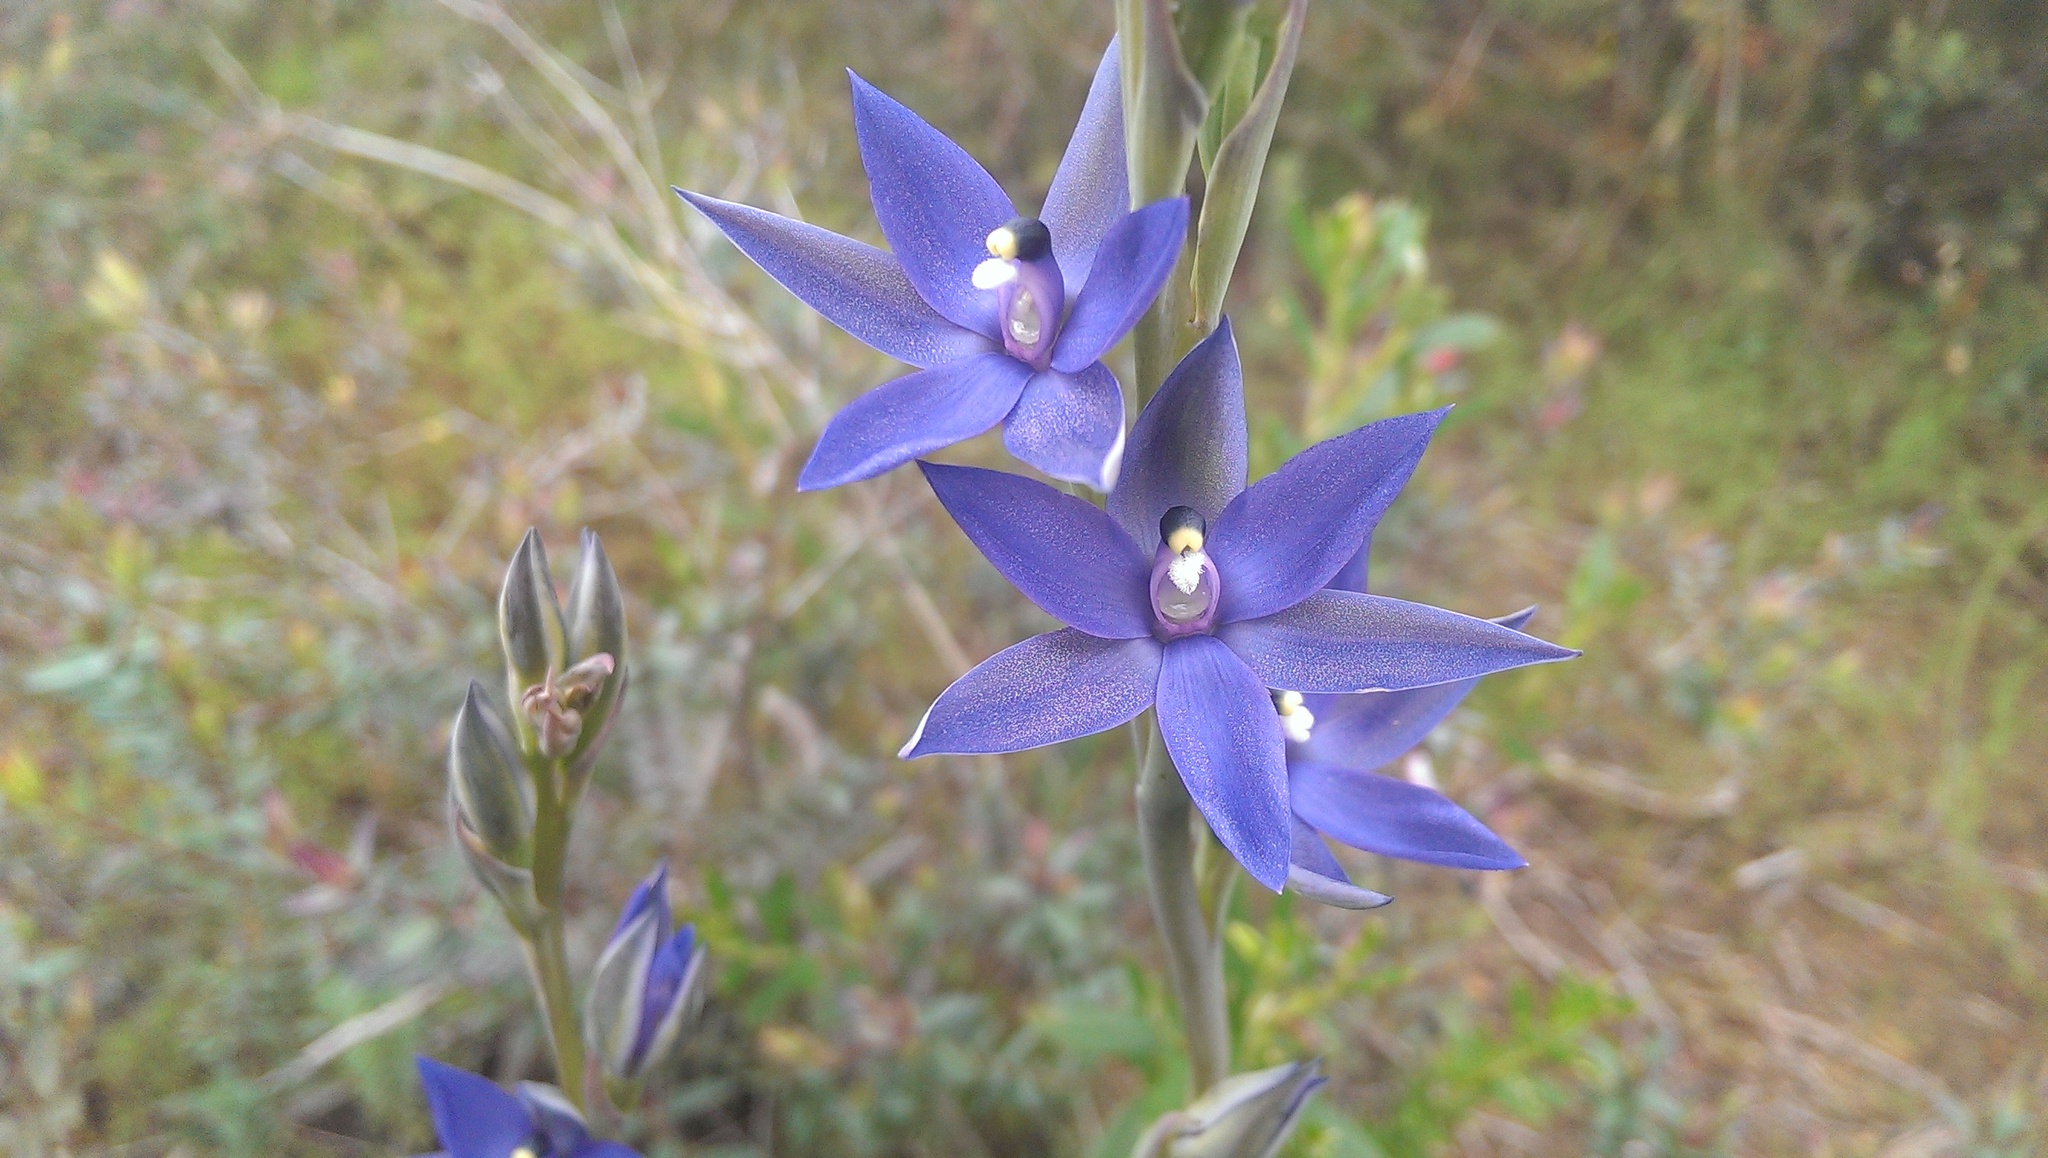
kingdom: Plantae
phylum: Tracheophyta
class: Liliopsida
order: Asparagales
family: Orchidaceae
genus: Thelymitra
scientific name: Thelymitra macrophylla
